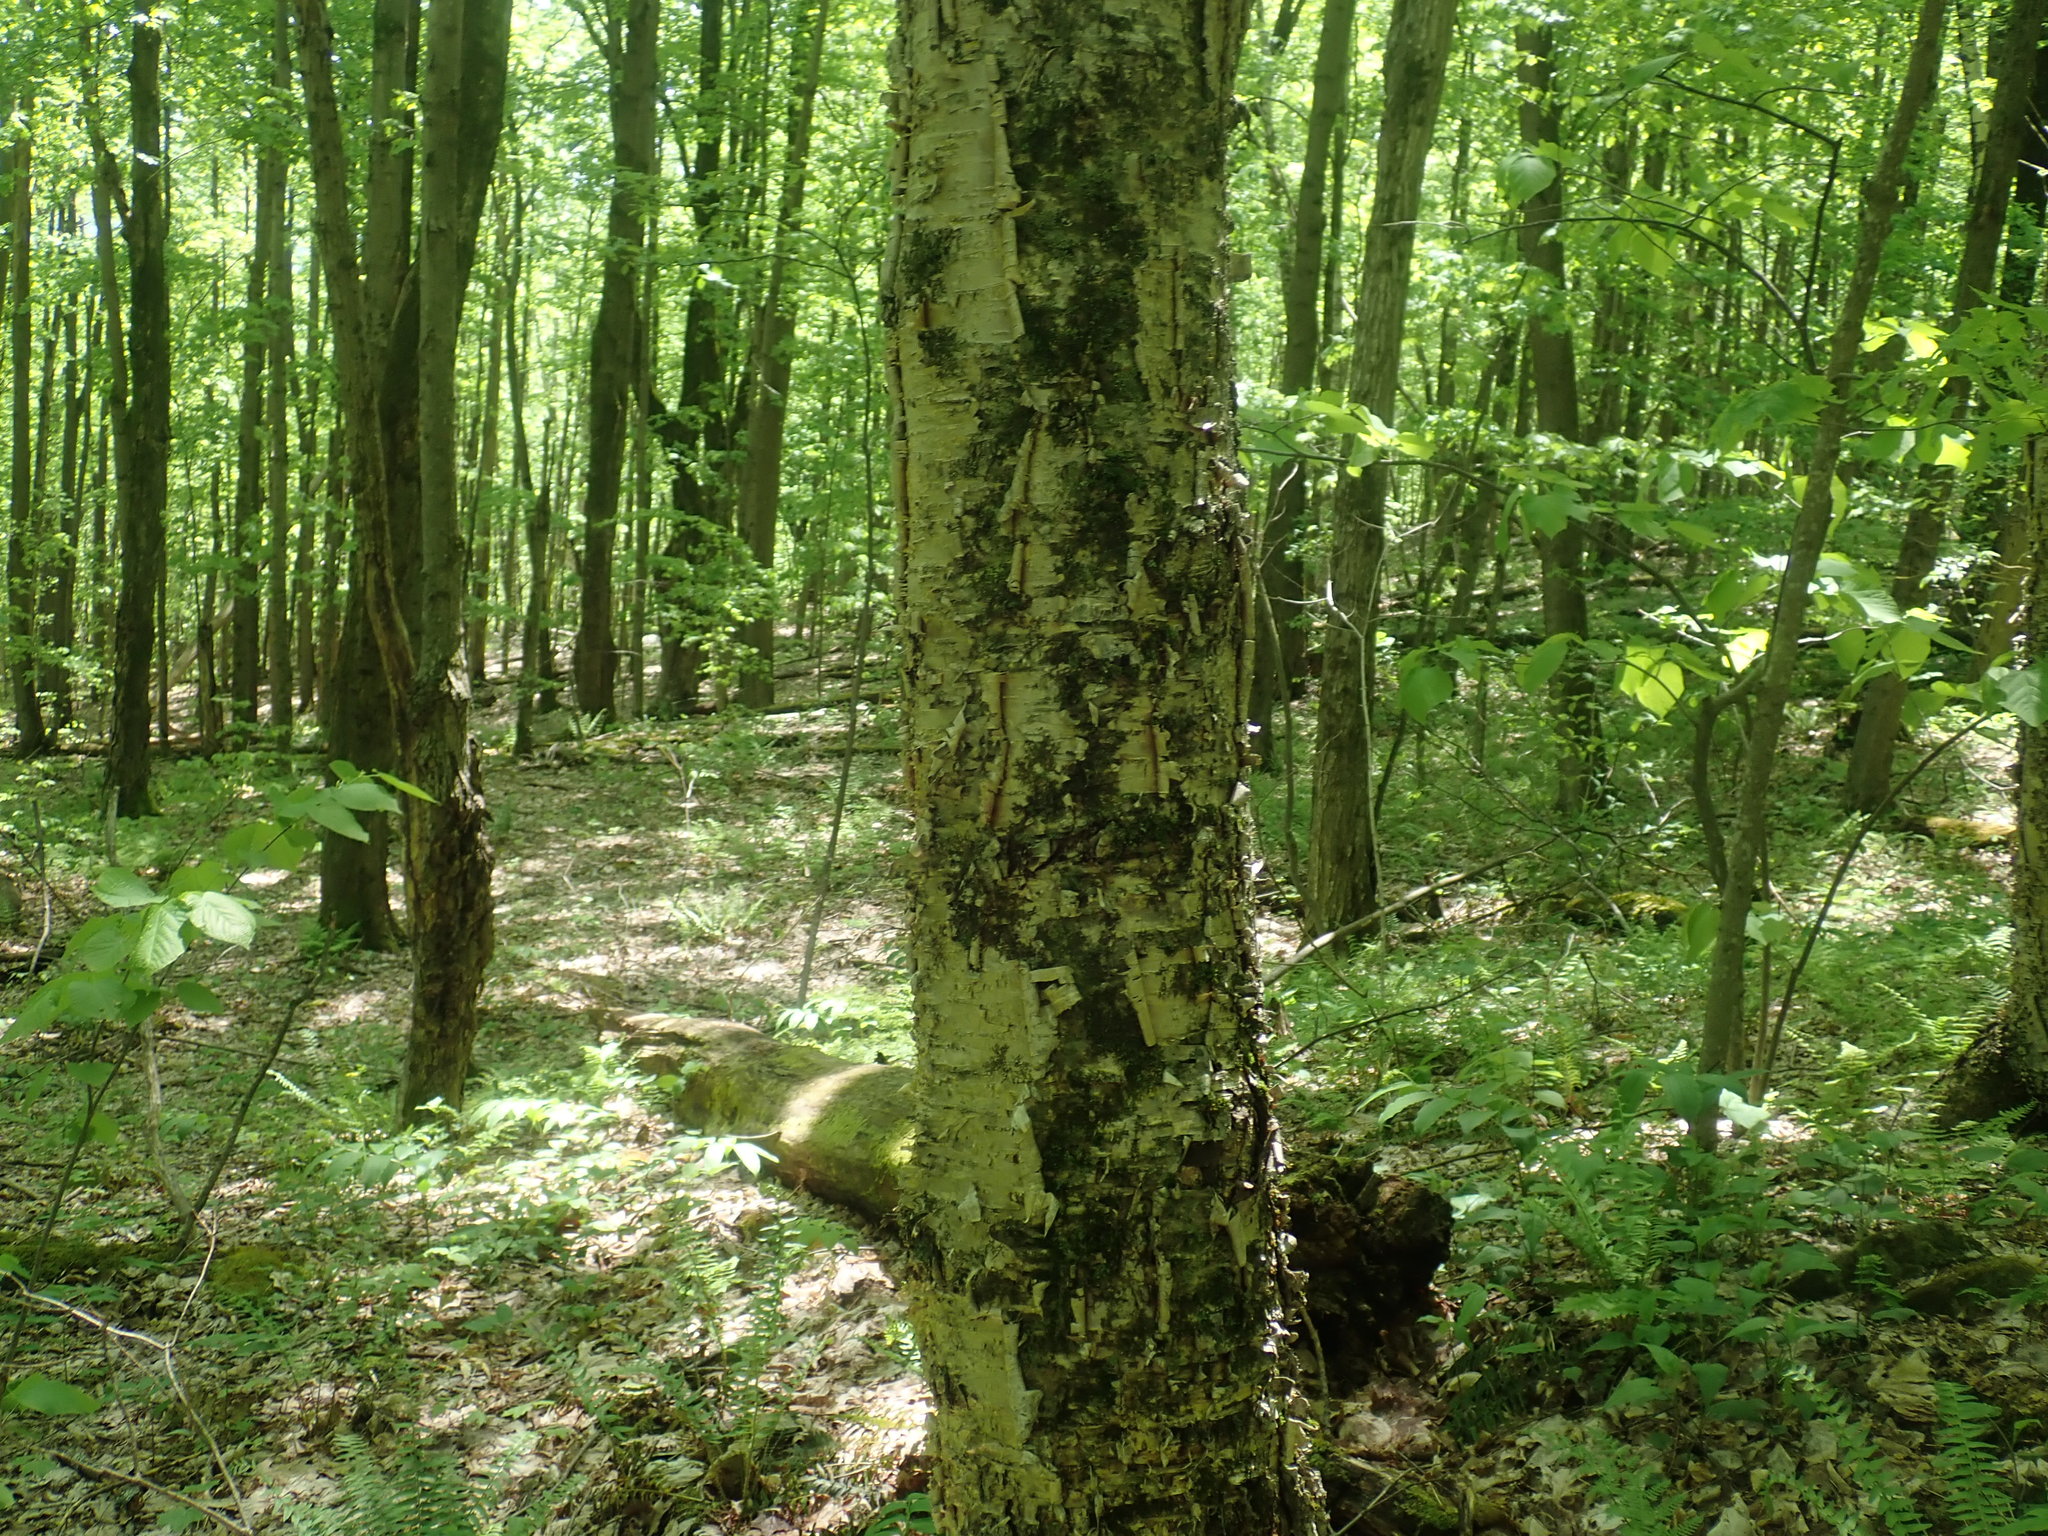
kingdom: Plantae
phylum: Tracheophyta
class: Magnoliopsida
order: Fagales
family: Betulaceae
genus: Betula
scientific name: Betula alleghaniensis
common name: Yellow birch
